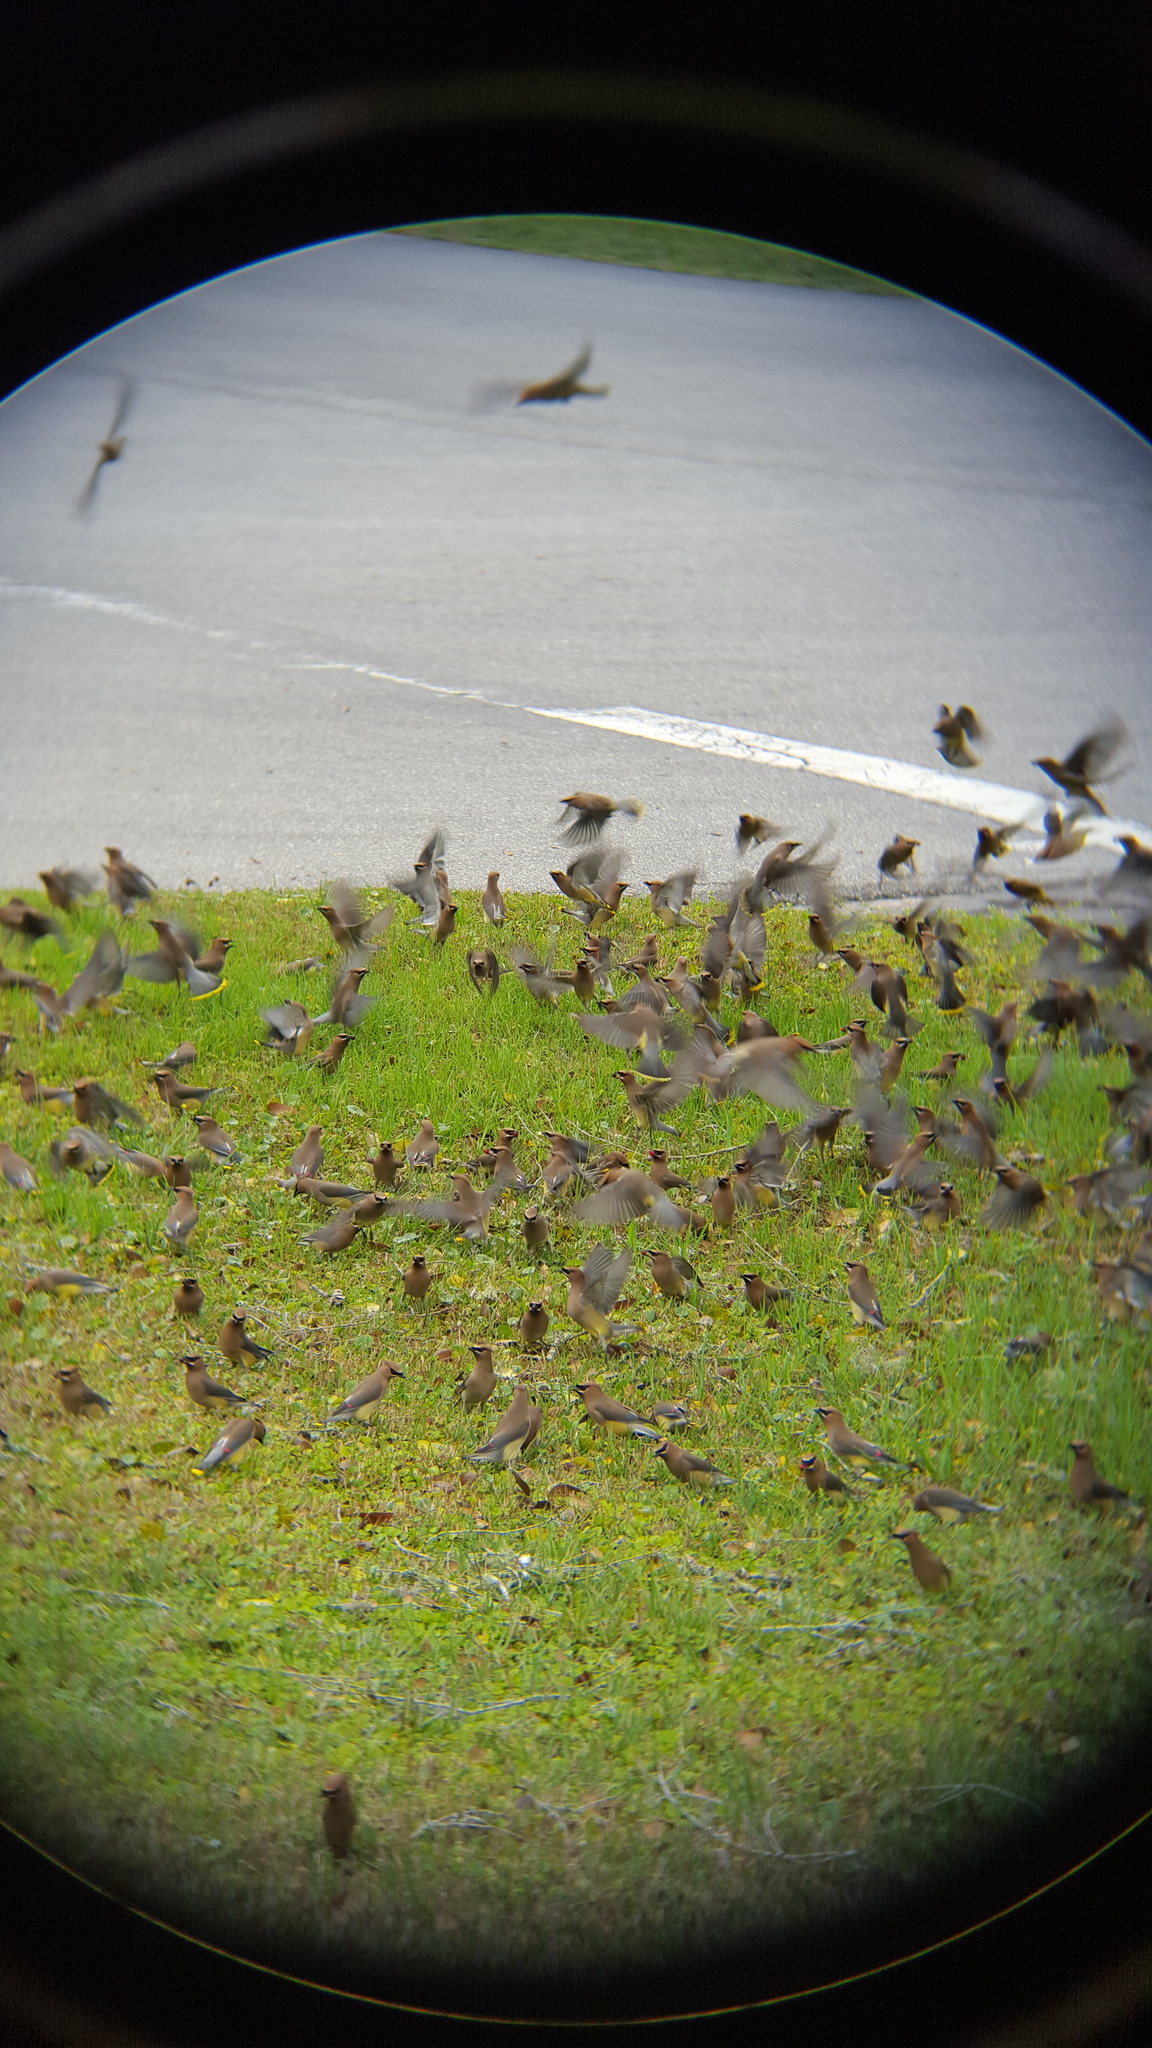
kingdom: Animalia
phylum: Chordata
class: Aves
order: Passeriformes
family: Bombycillidae
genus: Bombycilla
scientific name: Bombycilla cedrorum
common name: Cedar waxwing
